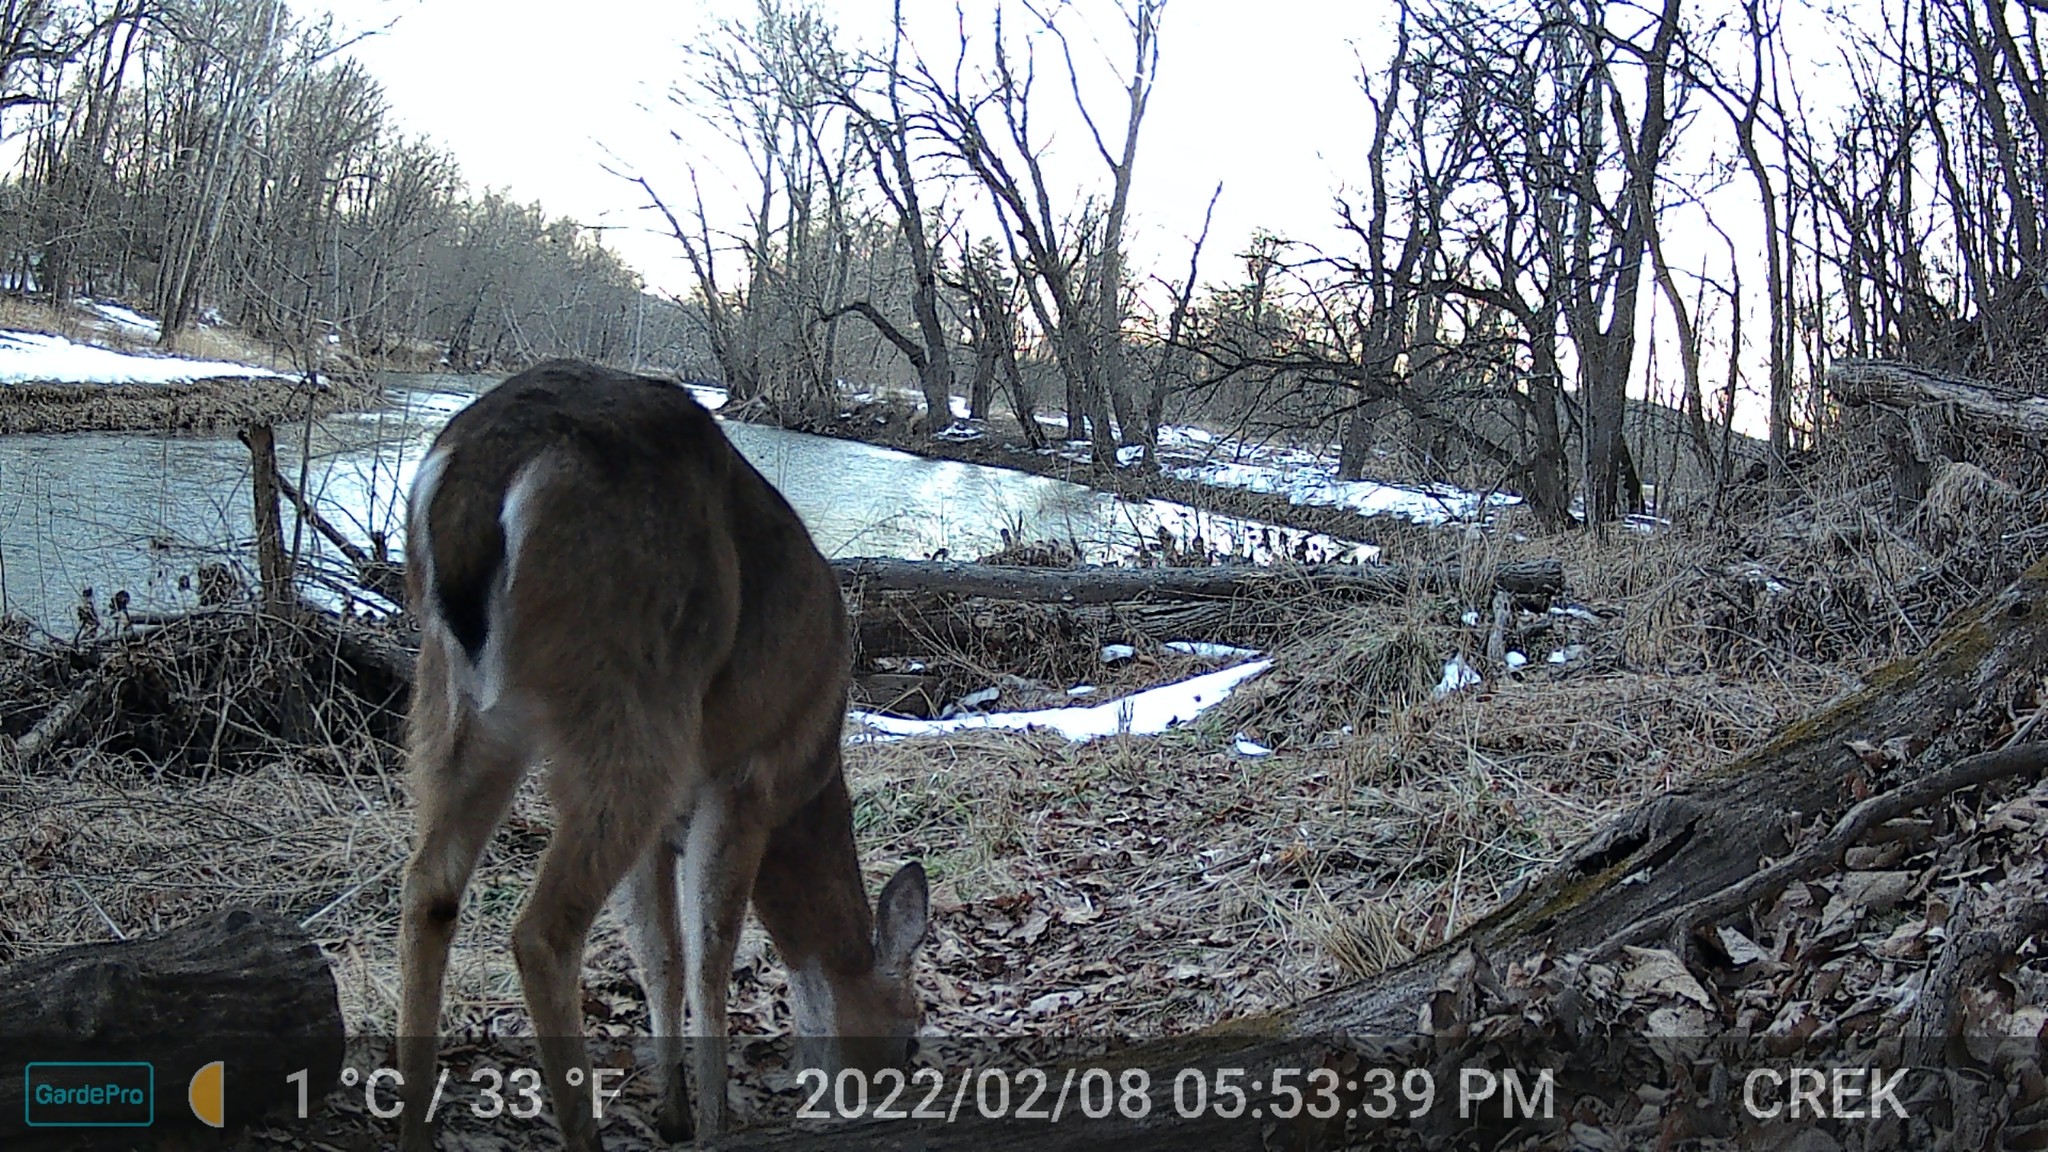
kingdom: Animalia
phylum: Chordata
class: Mammalia
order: Artiodactyla
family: Cervidae
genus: Odocoileus
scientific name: Odocoileus virginianus
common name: White-tailed deer
